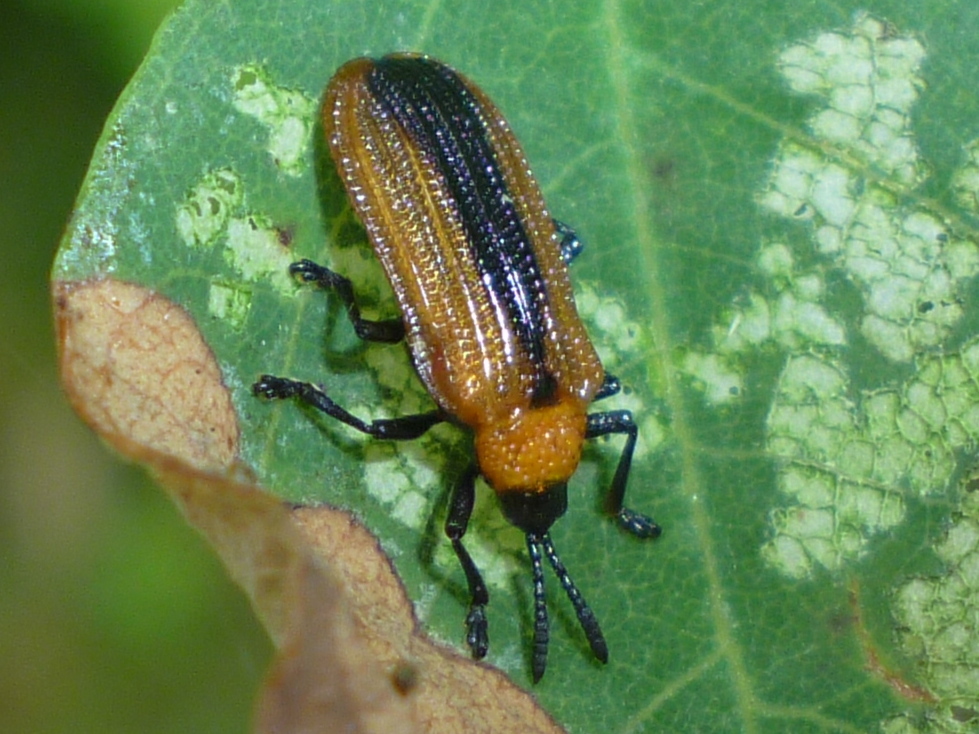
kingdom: Animalia
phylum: Arthropoda
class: Insecta
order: Coleoptera
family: Chrysomelidae
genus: Odontota
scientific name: Odontota dorsalis
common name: Locust leaf-miner beetle
